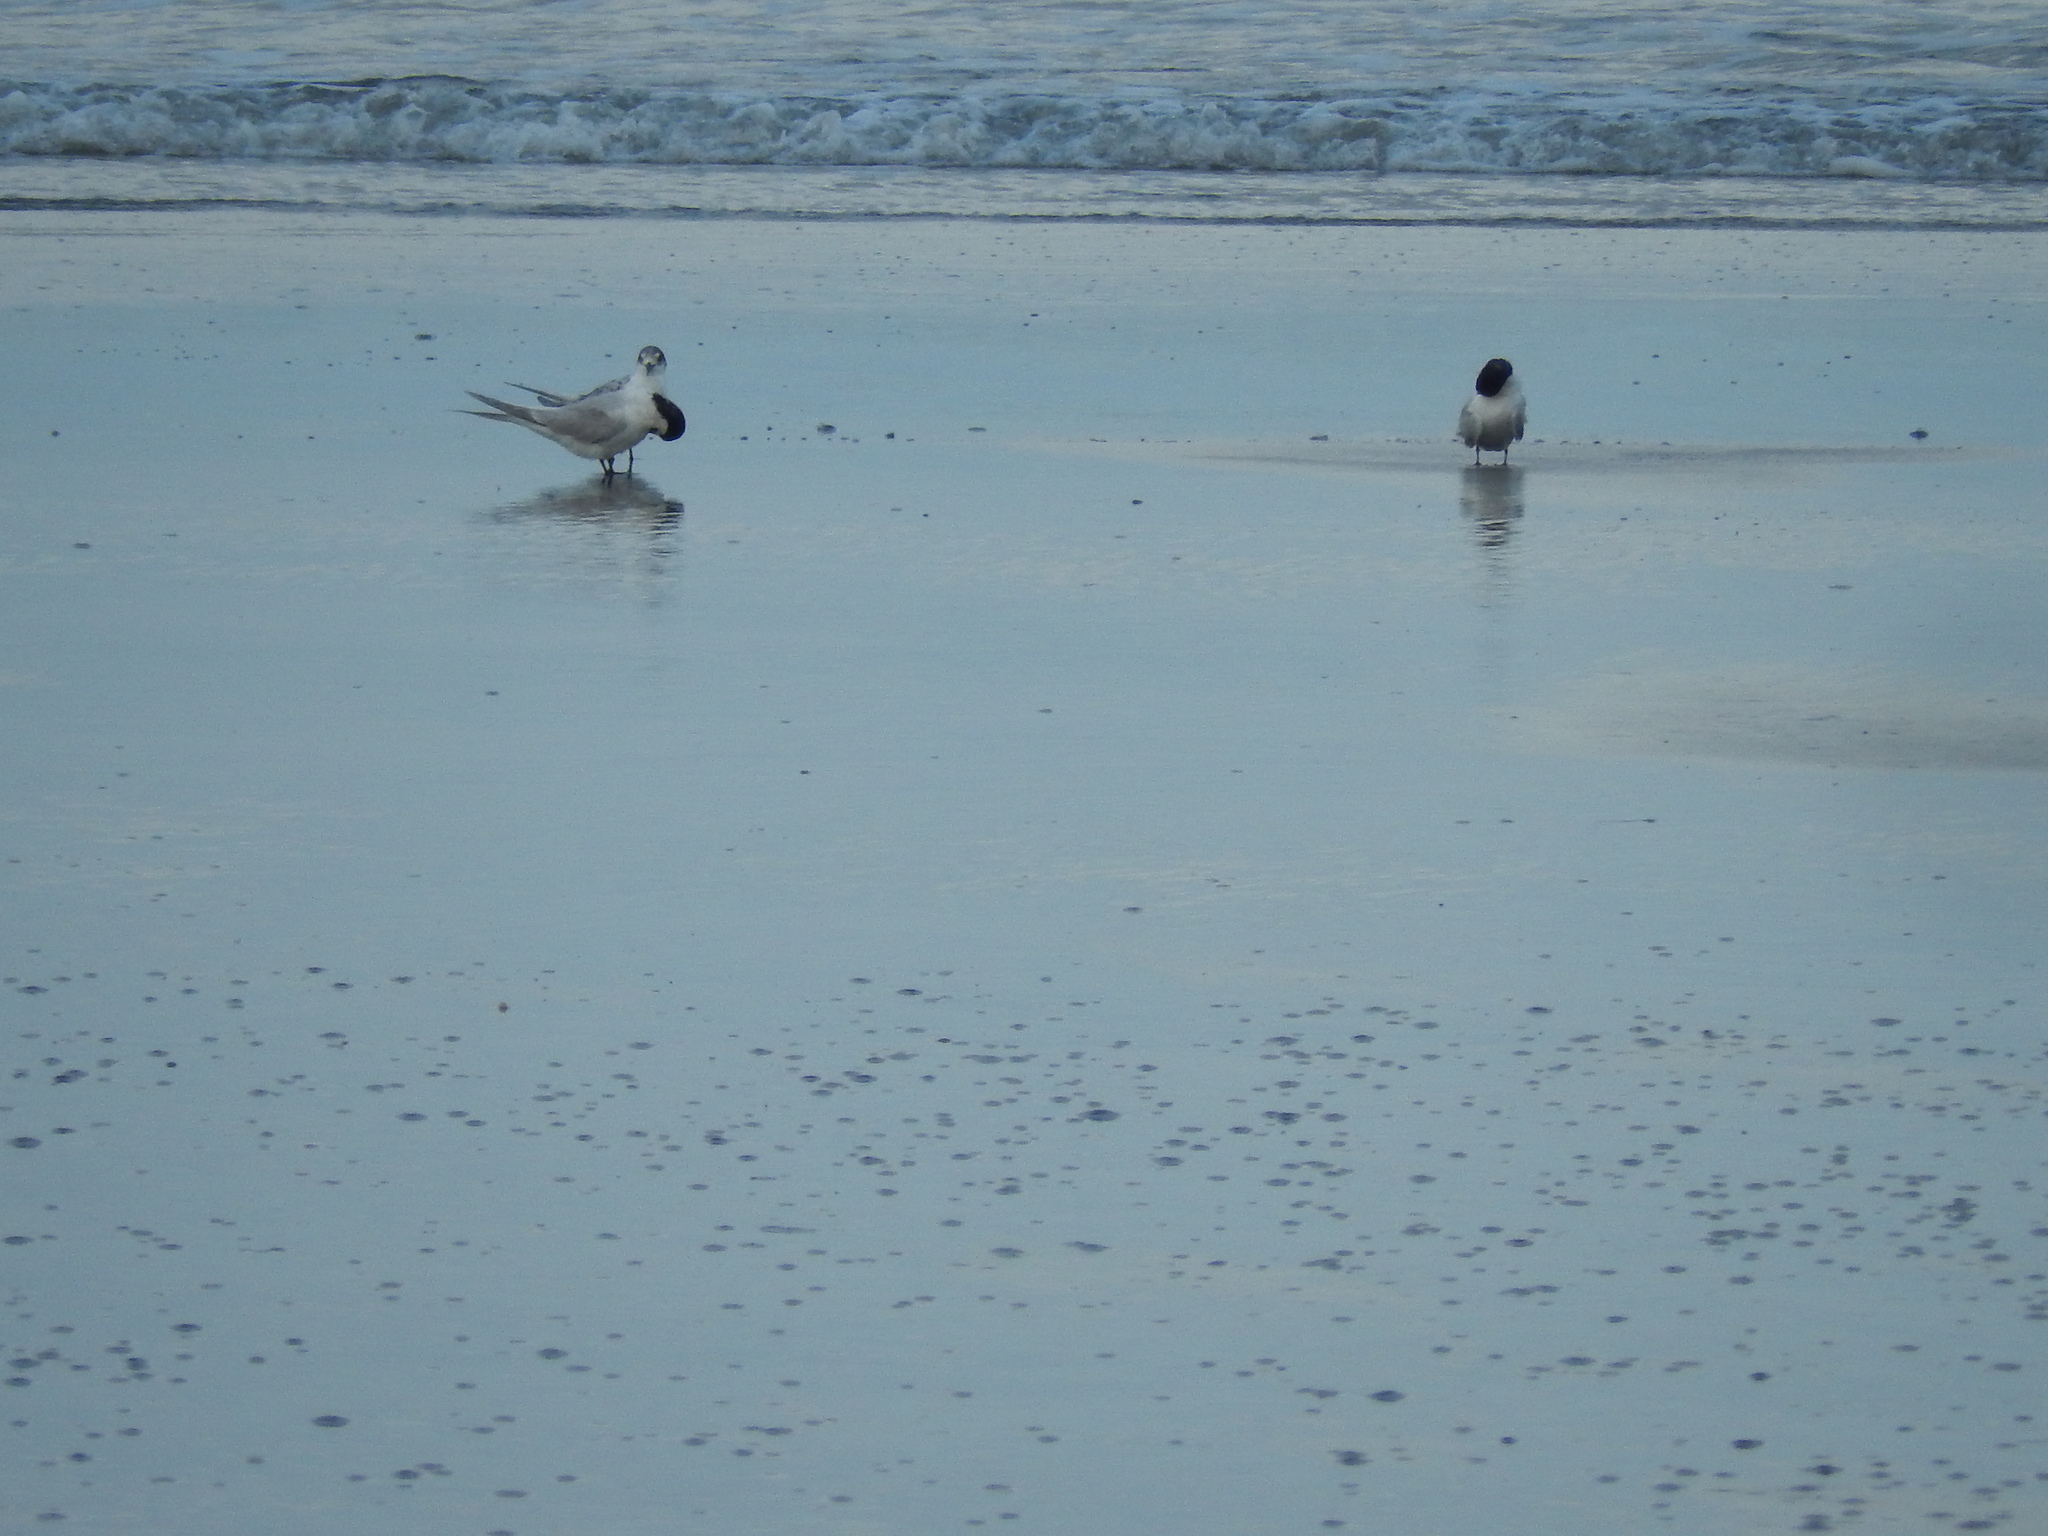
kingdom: Animalia
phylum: Chordata
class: Aves
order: Charadriiformes
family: Laridae
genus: Sterna
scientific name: Sterna striata
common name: White-fronted tern
